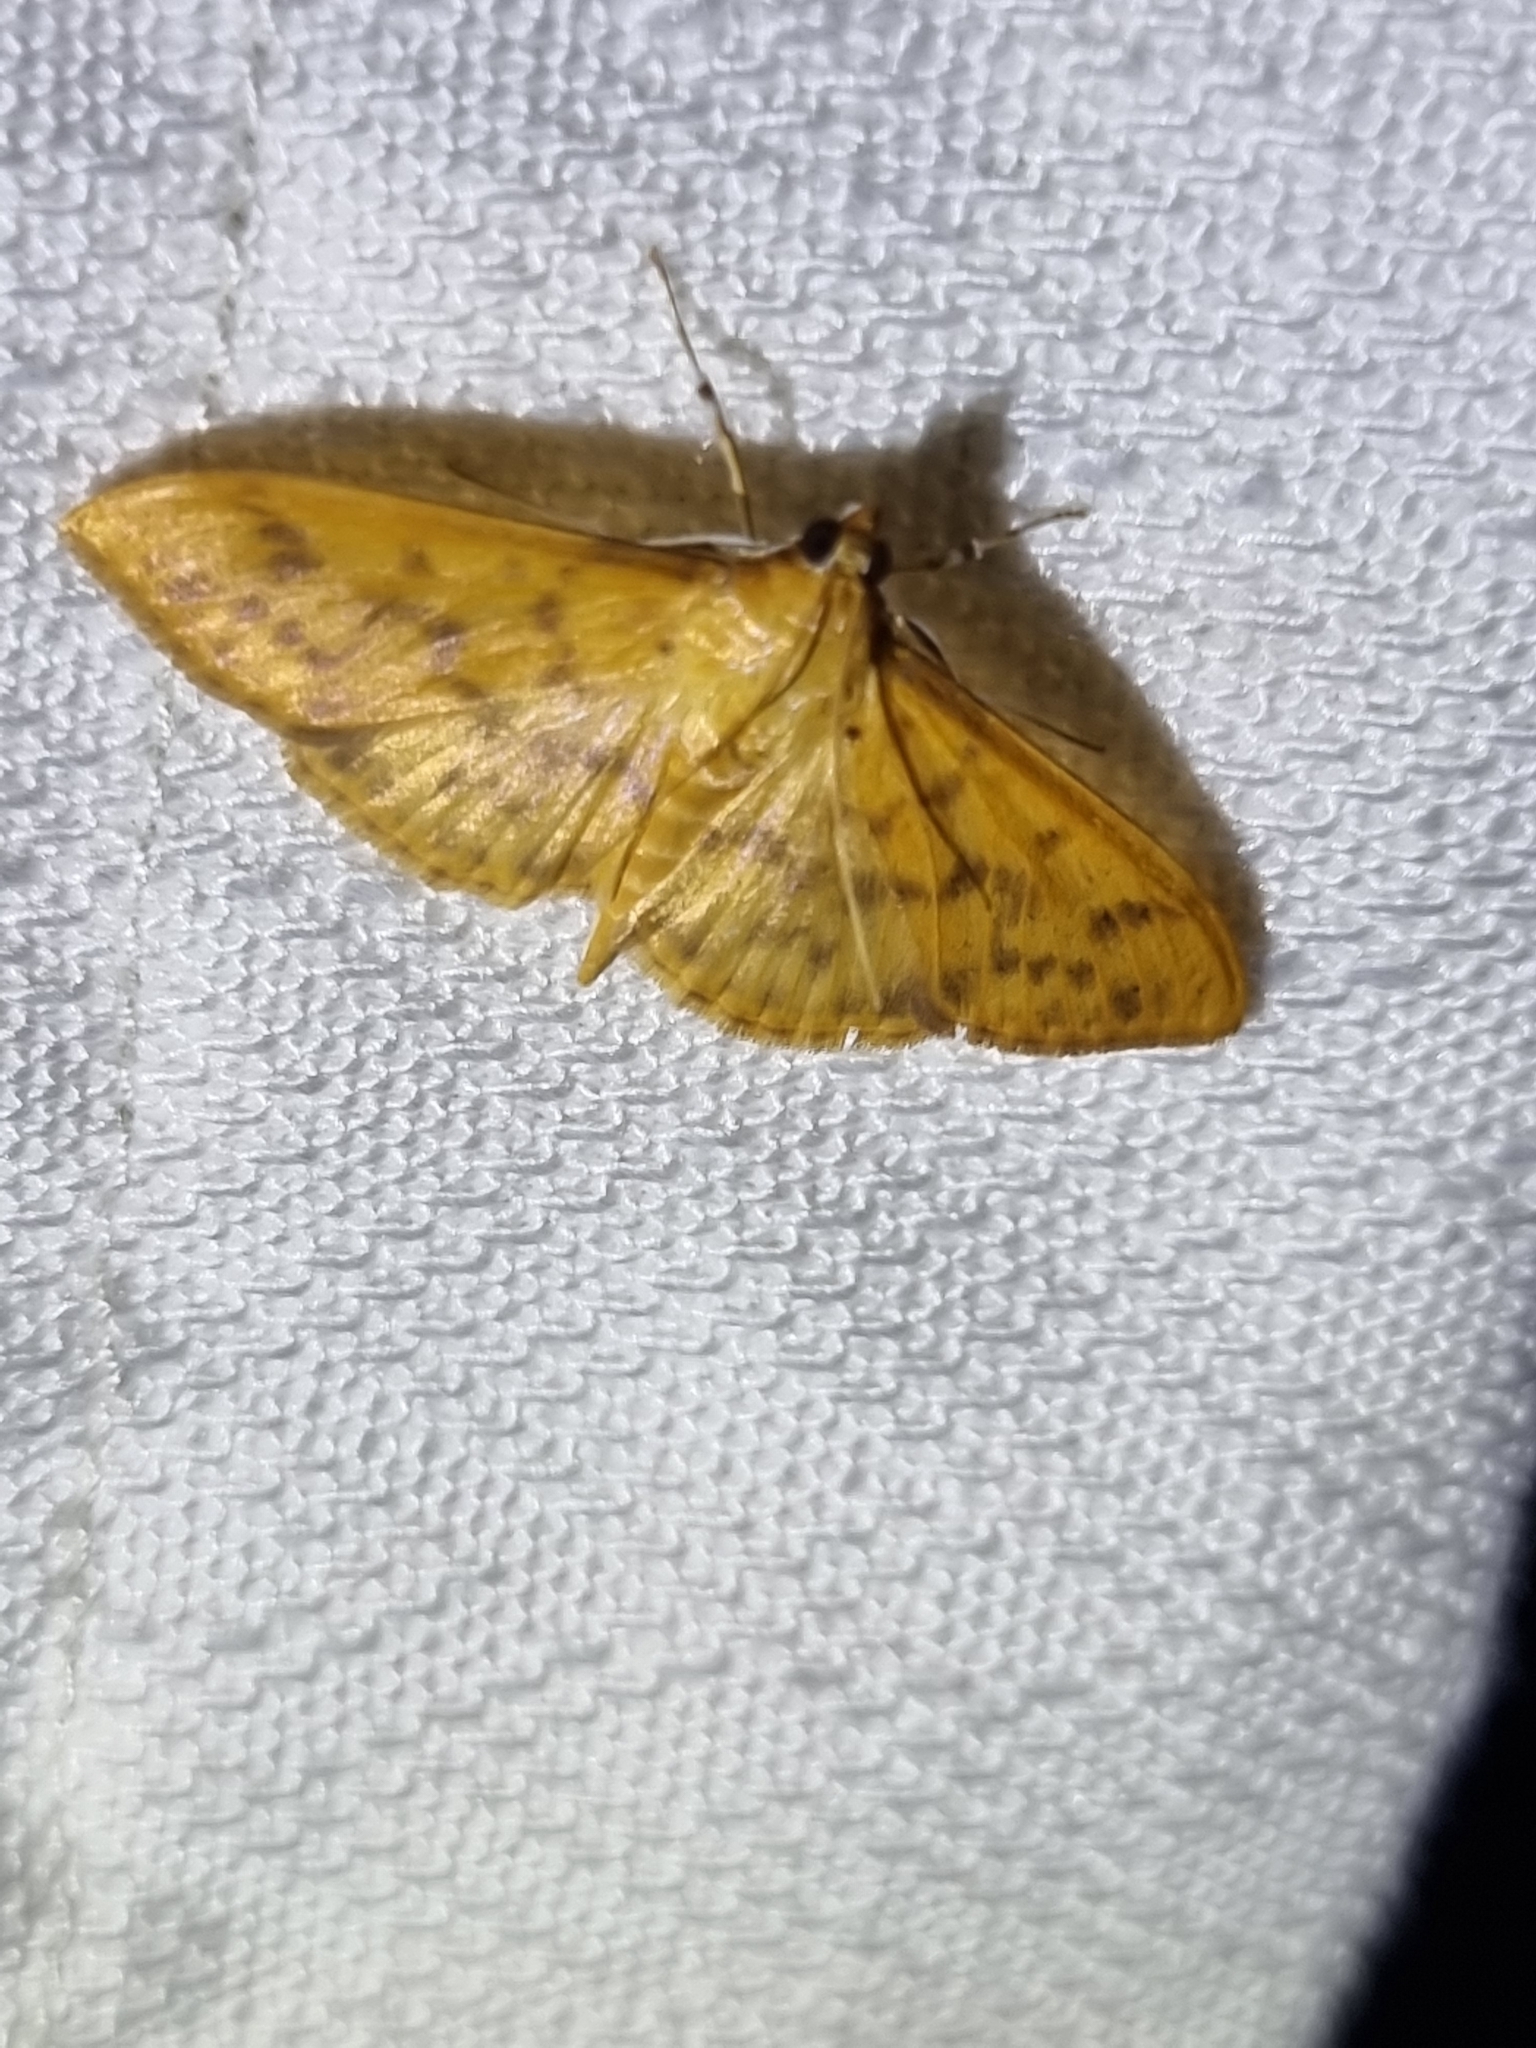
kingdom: Animalia
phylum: Arthropoda
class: Insecta
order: Lepidoptera
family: Crambidae
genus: Pleuroptya
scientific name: Pleuroptya balteata
